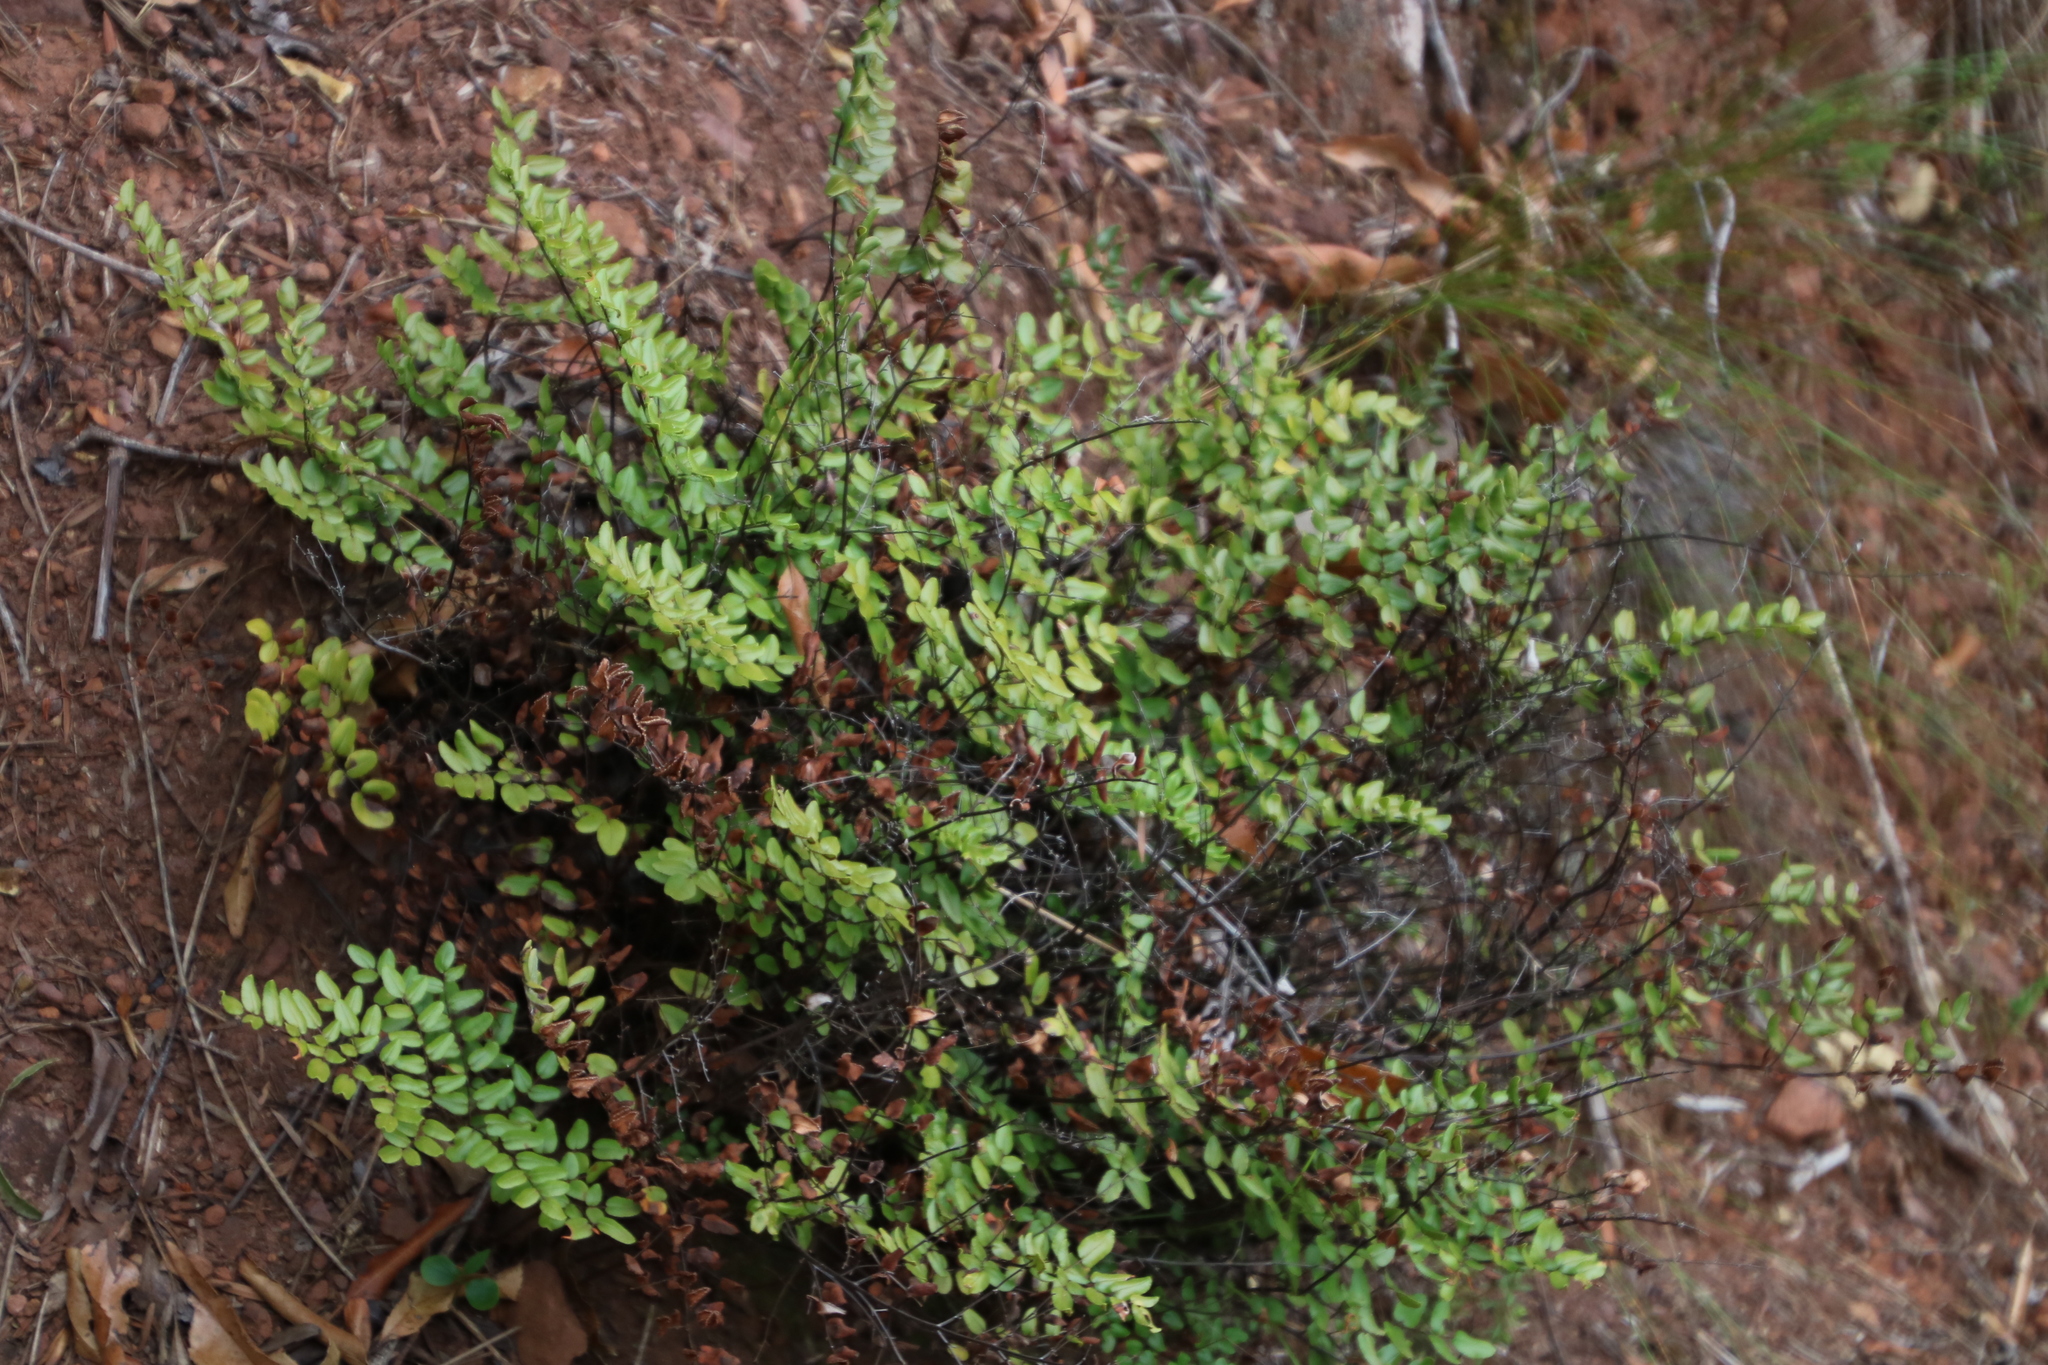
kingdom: Plantae
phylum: Tracheophyta
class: Polypodiopsida
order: Polypodiales
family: Pteridaceae
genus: Pellaea
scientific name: Pellaea pteroides
